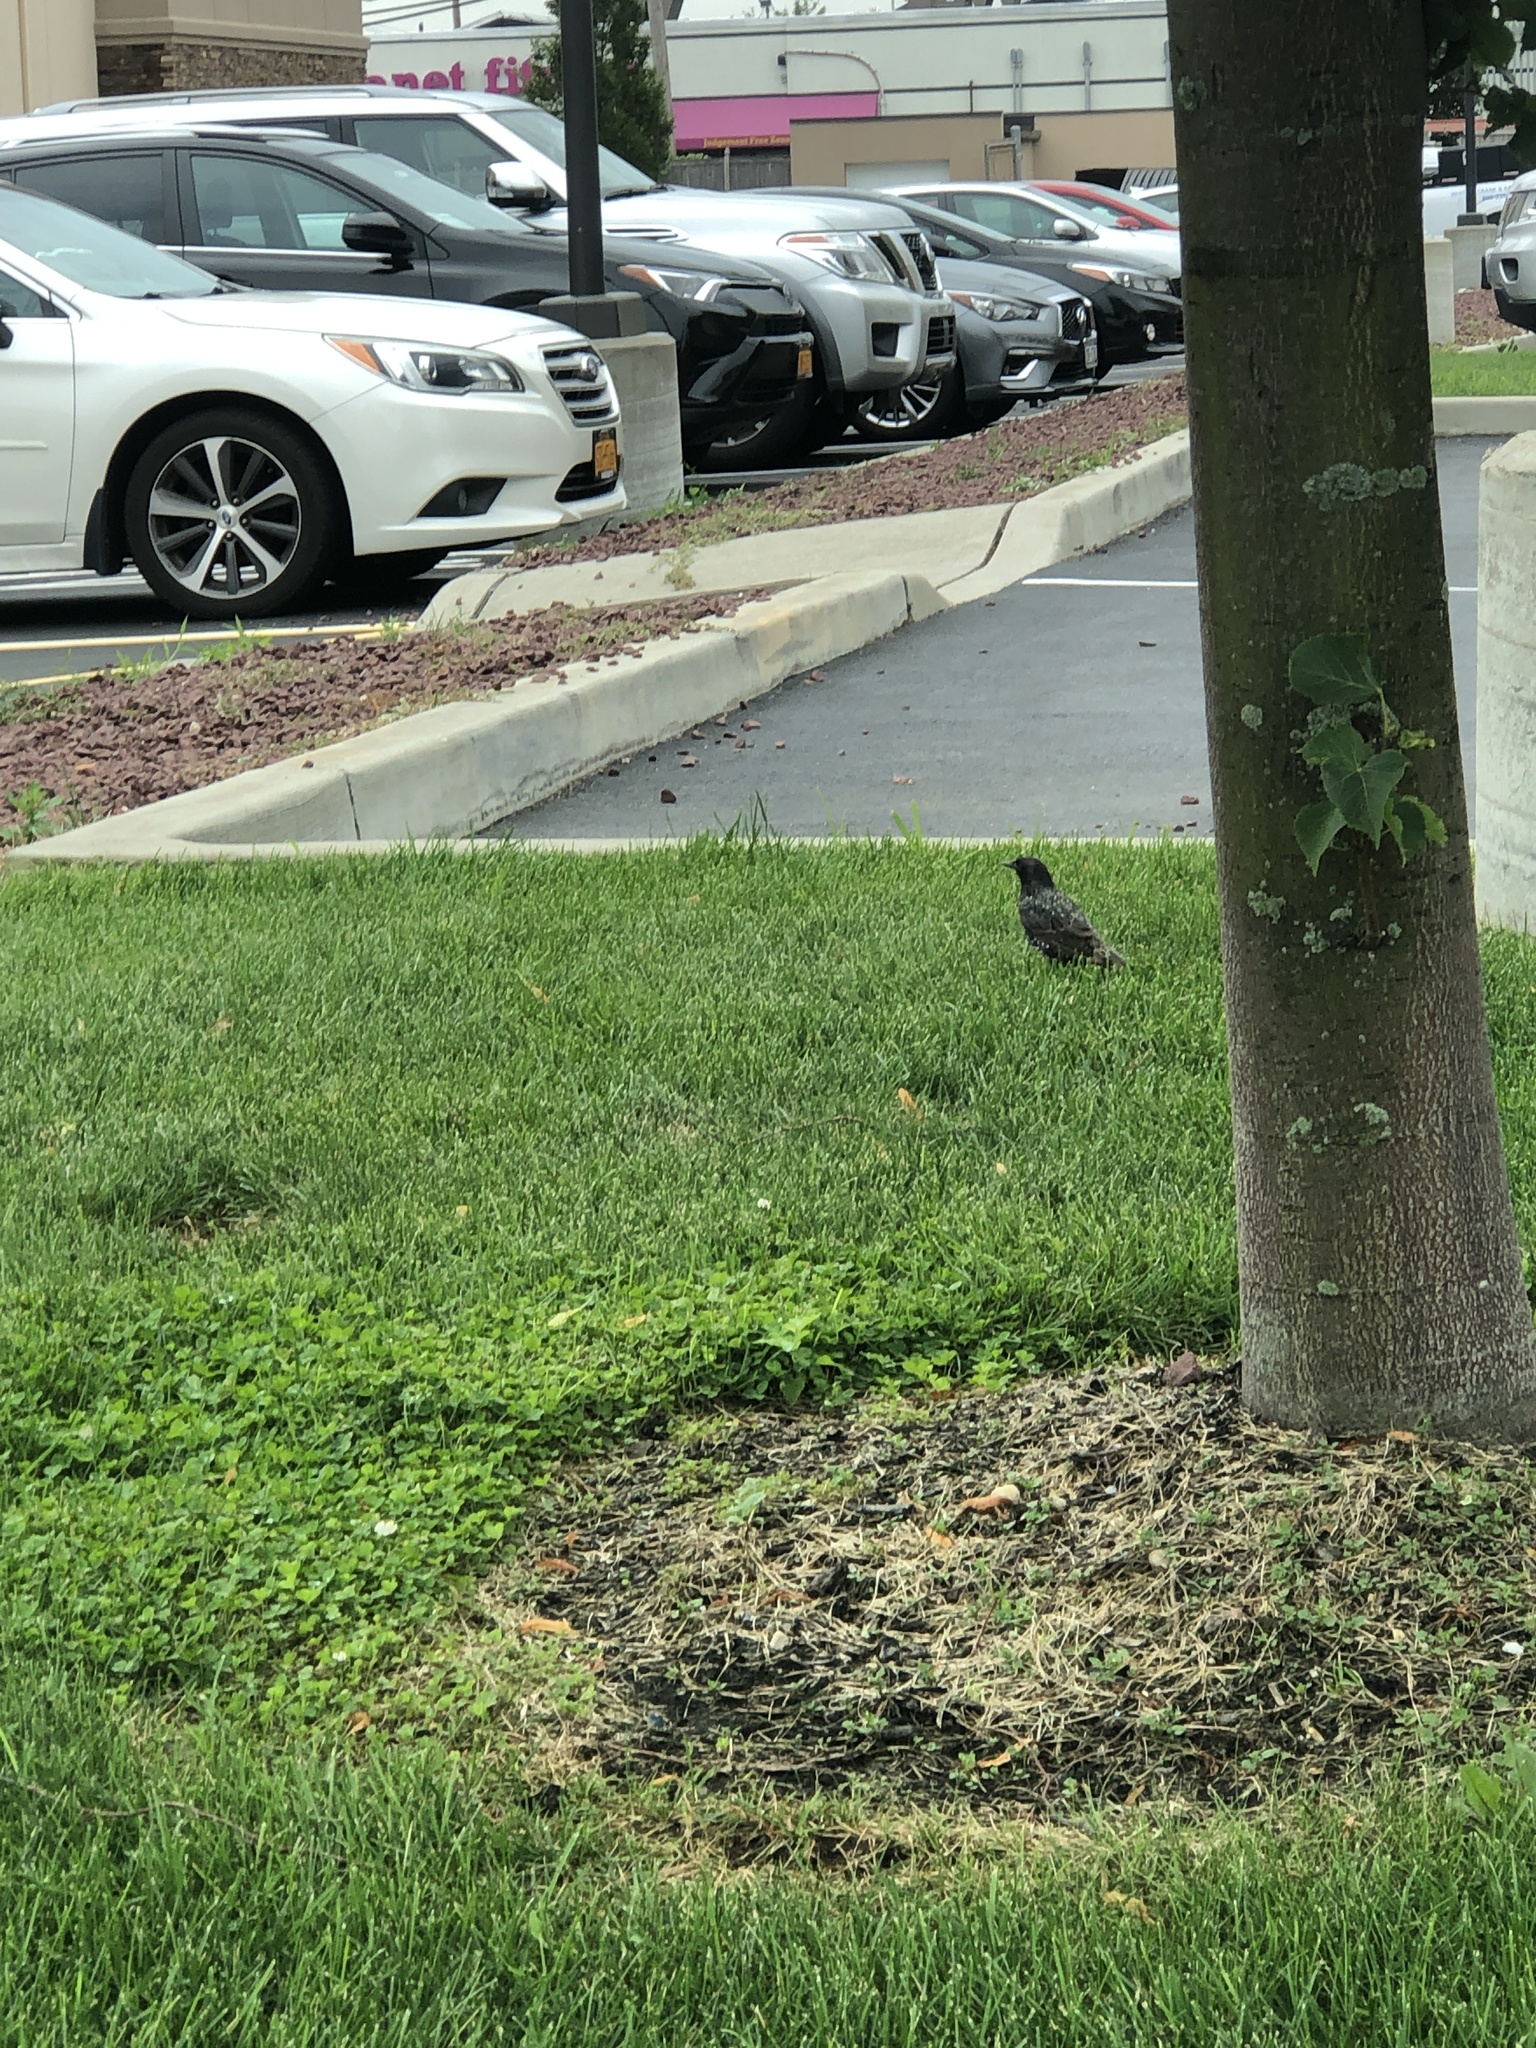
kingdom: Animalia
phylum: Chordata
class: Aves
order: Passeriformes
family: Sturnidae
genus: Sturnus
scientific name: Sturnus vulgaris
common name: Common starling
